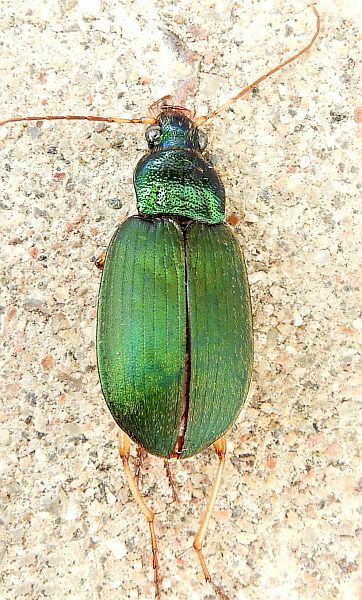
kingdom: Animalia
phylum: Arthropoda
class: Insecta
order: Coleoptera
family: Carabidae
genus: Chlaenius
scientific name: Chlaenius sericeus
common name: Green pubescent ground beetle
